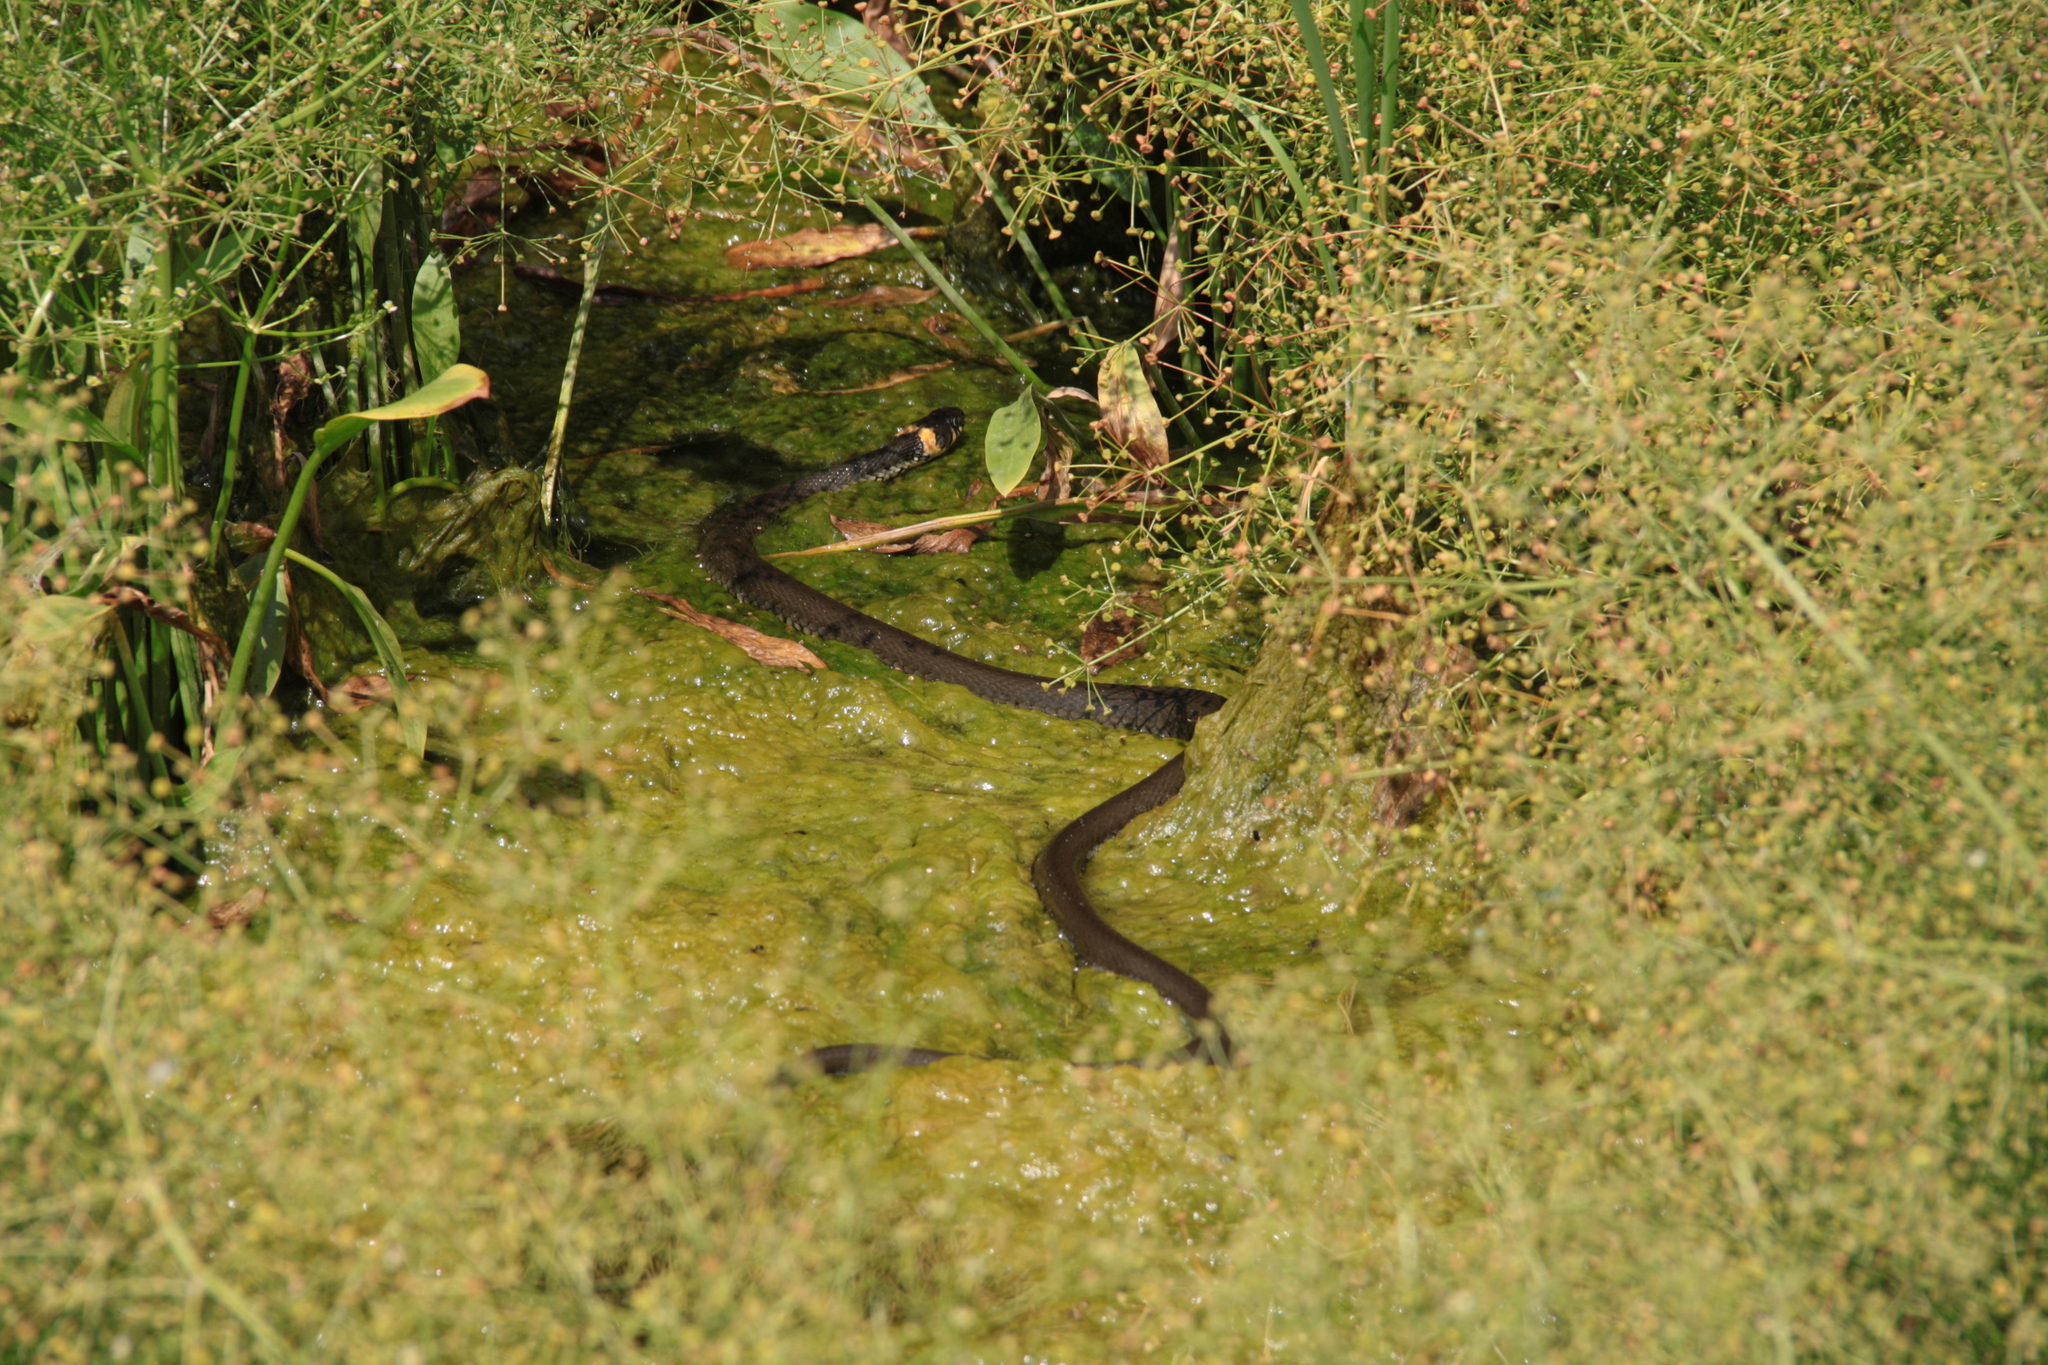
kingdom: Animalia
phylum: Chordata
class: Squamata
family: Colubridae
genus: Natrix
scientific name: Natrix natrix
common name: Grass snake
